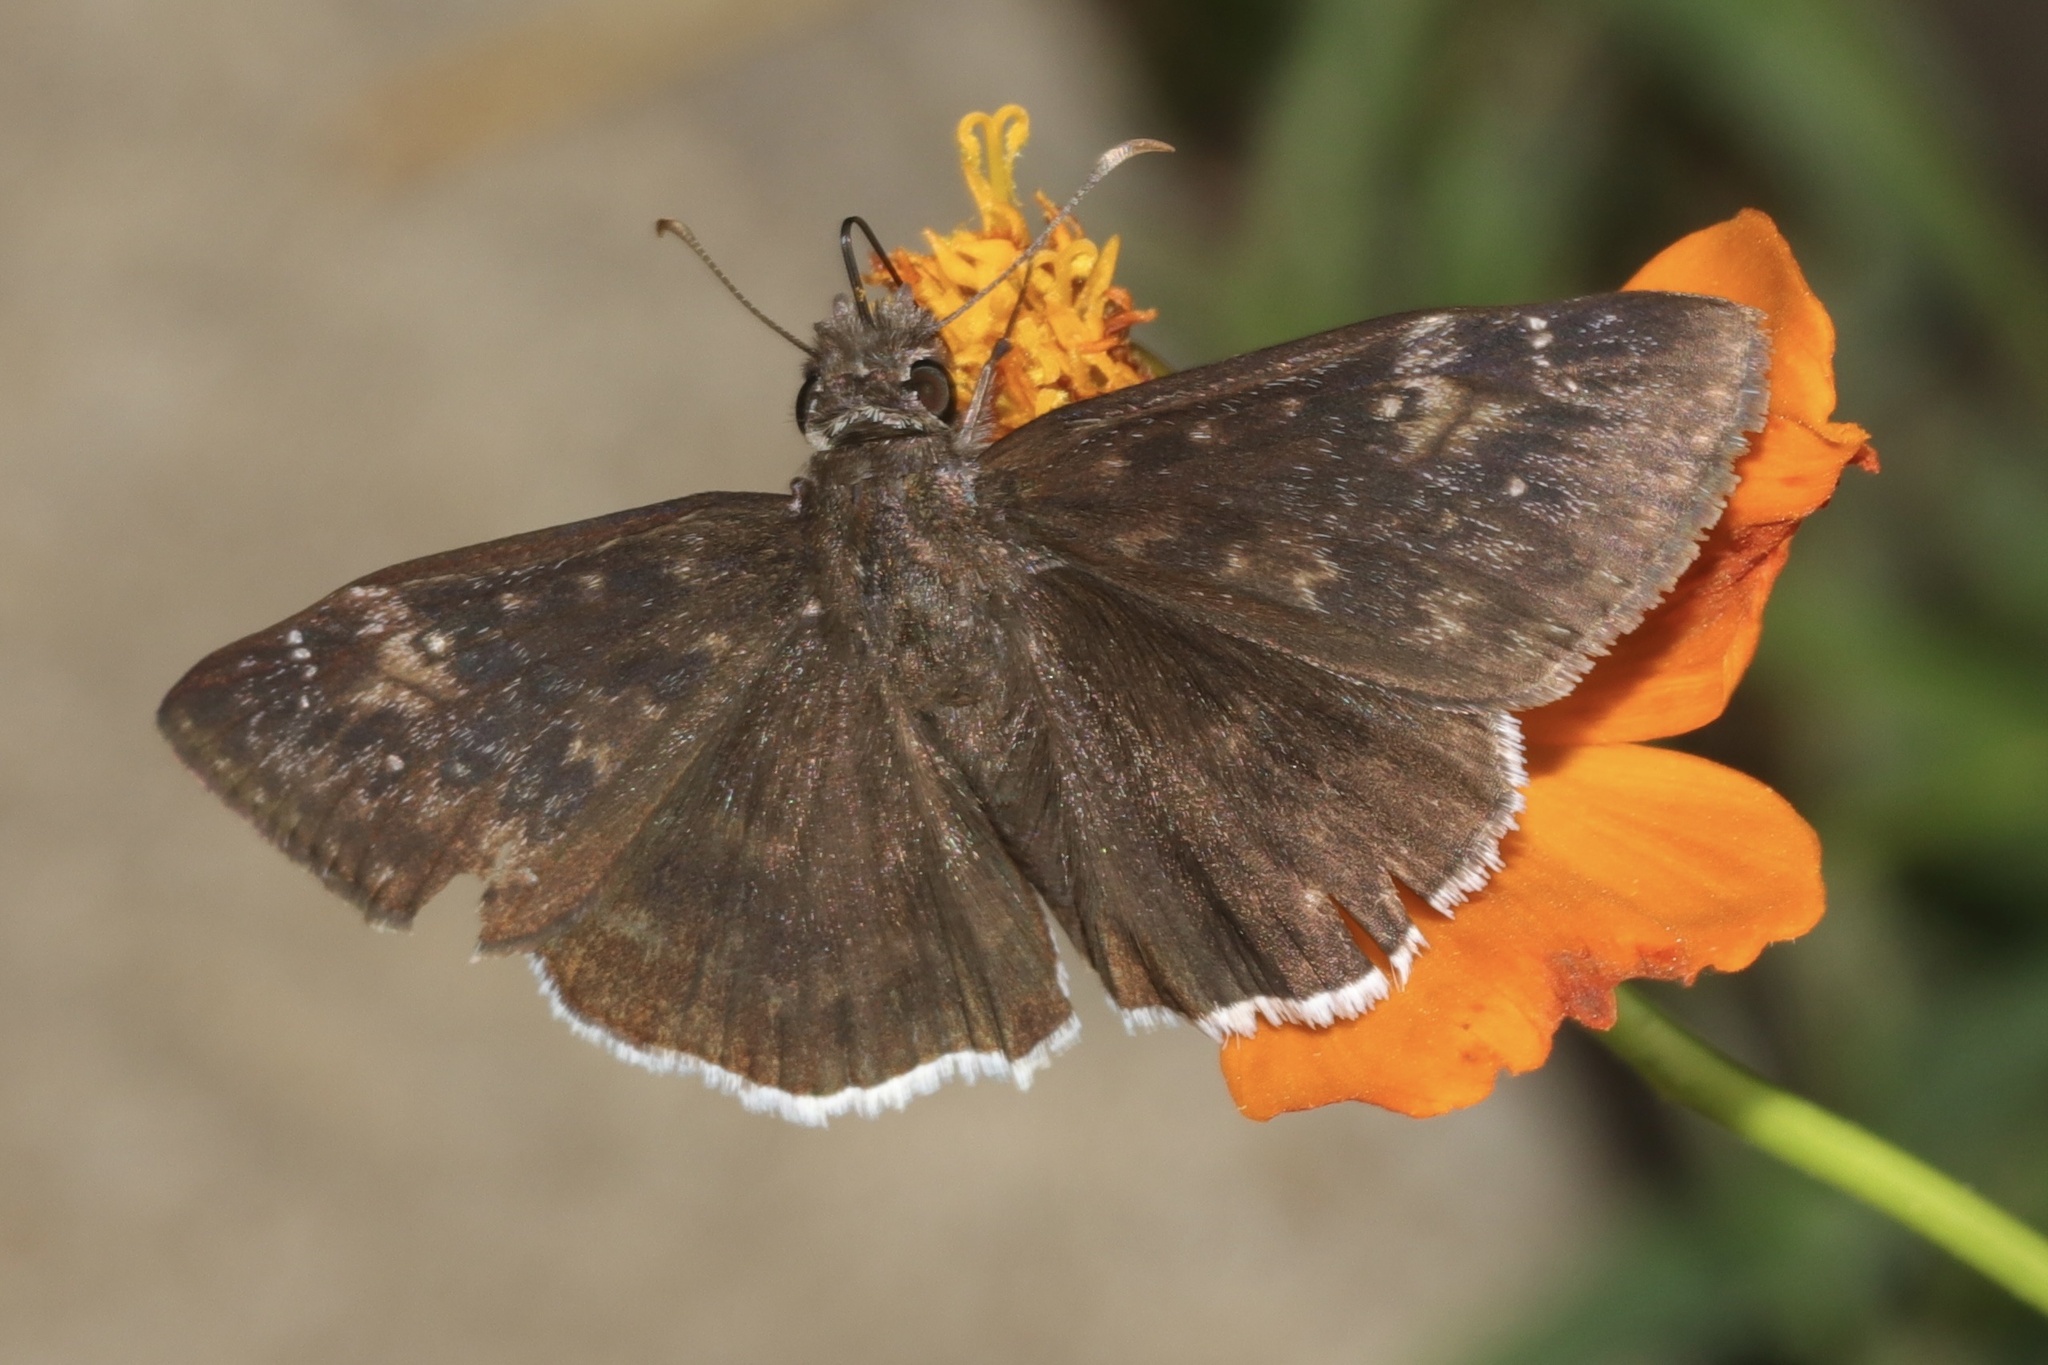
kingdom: Animalia
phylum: Arthropoda
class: Insecta
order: Lepidoptera
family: Hesperiidae
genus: Erynnis
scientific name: Erynnis funeralis
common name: Funereal duskywing
